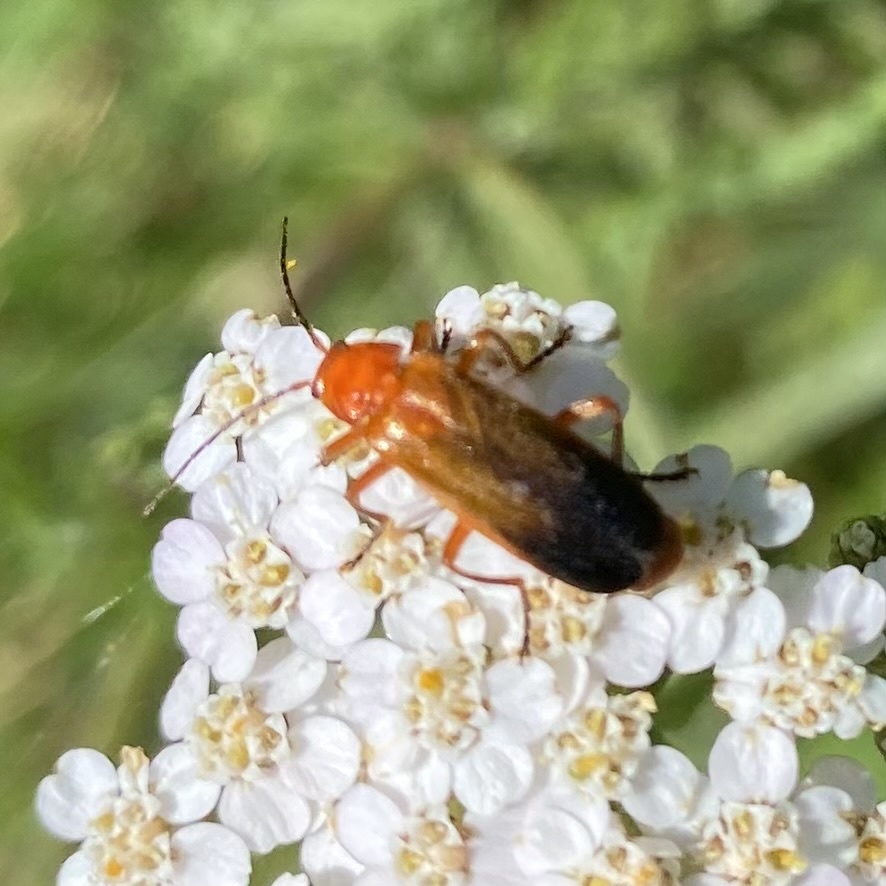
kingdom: Animalia
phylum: Arthropoda
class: Insecta
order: Coleoptera
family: Cantharidae
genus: Rhagonycha
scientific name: Rhagonycha fulva
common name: Common red soldier beetle
